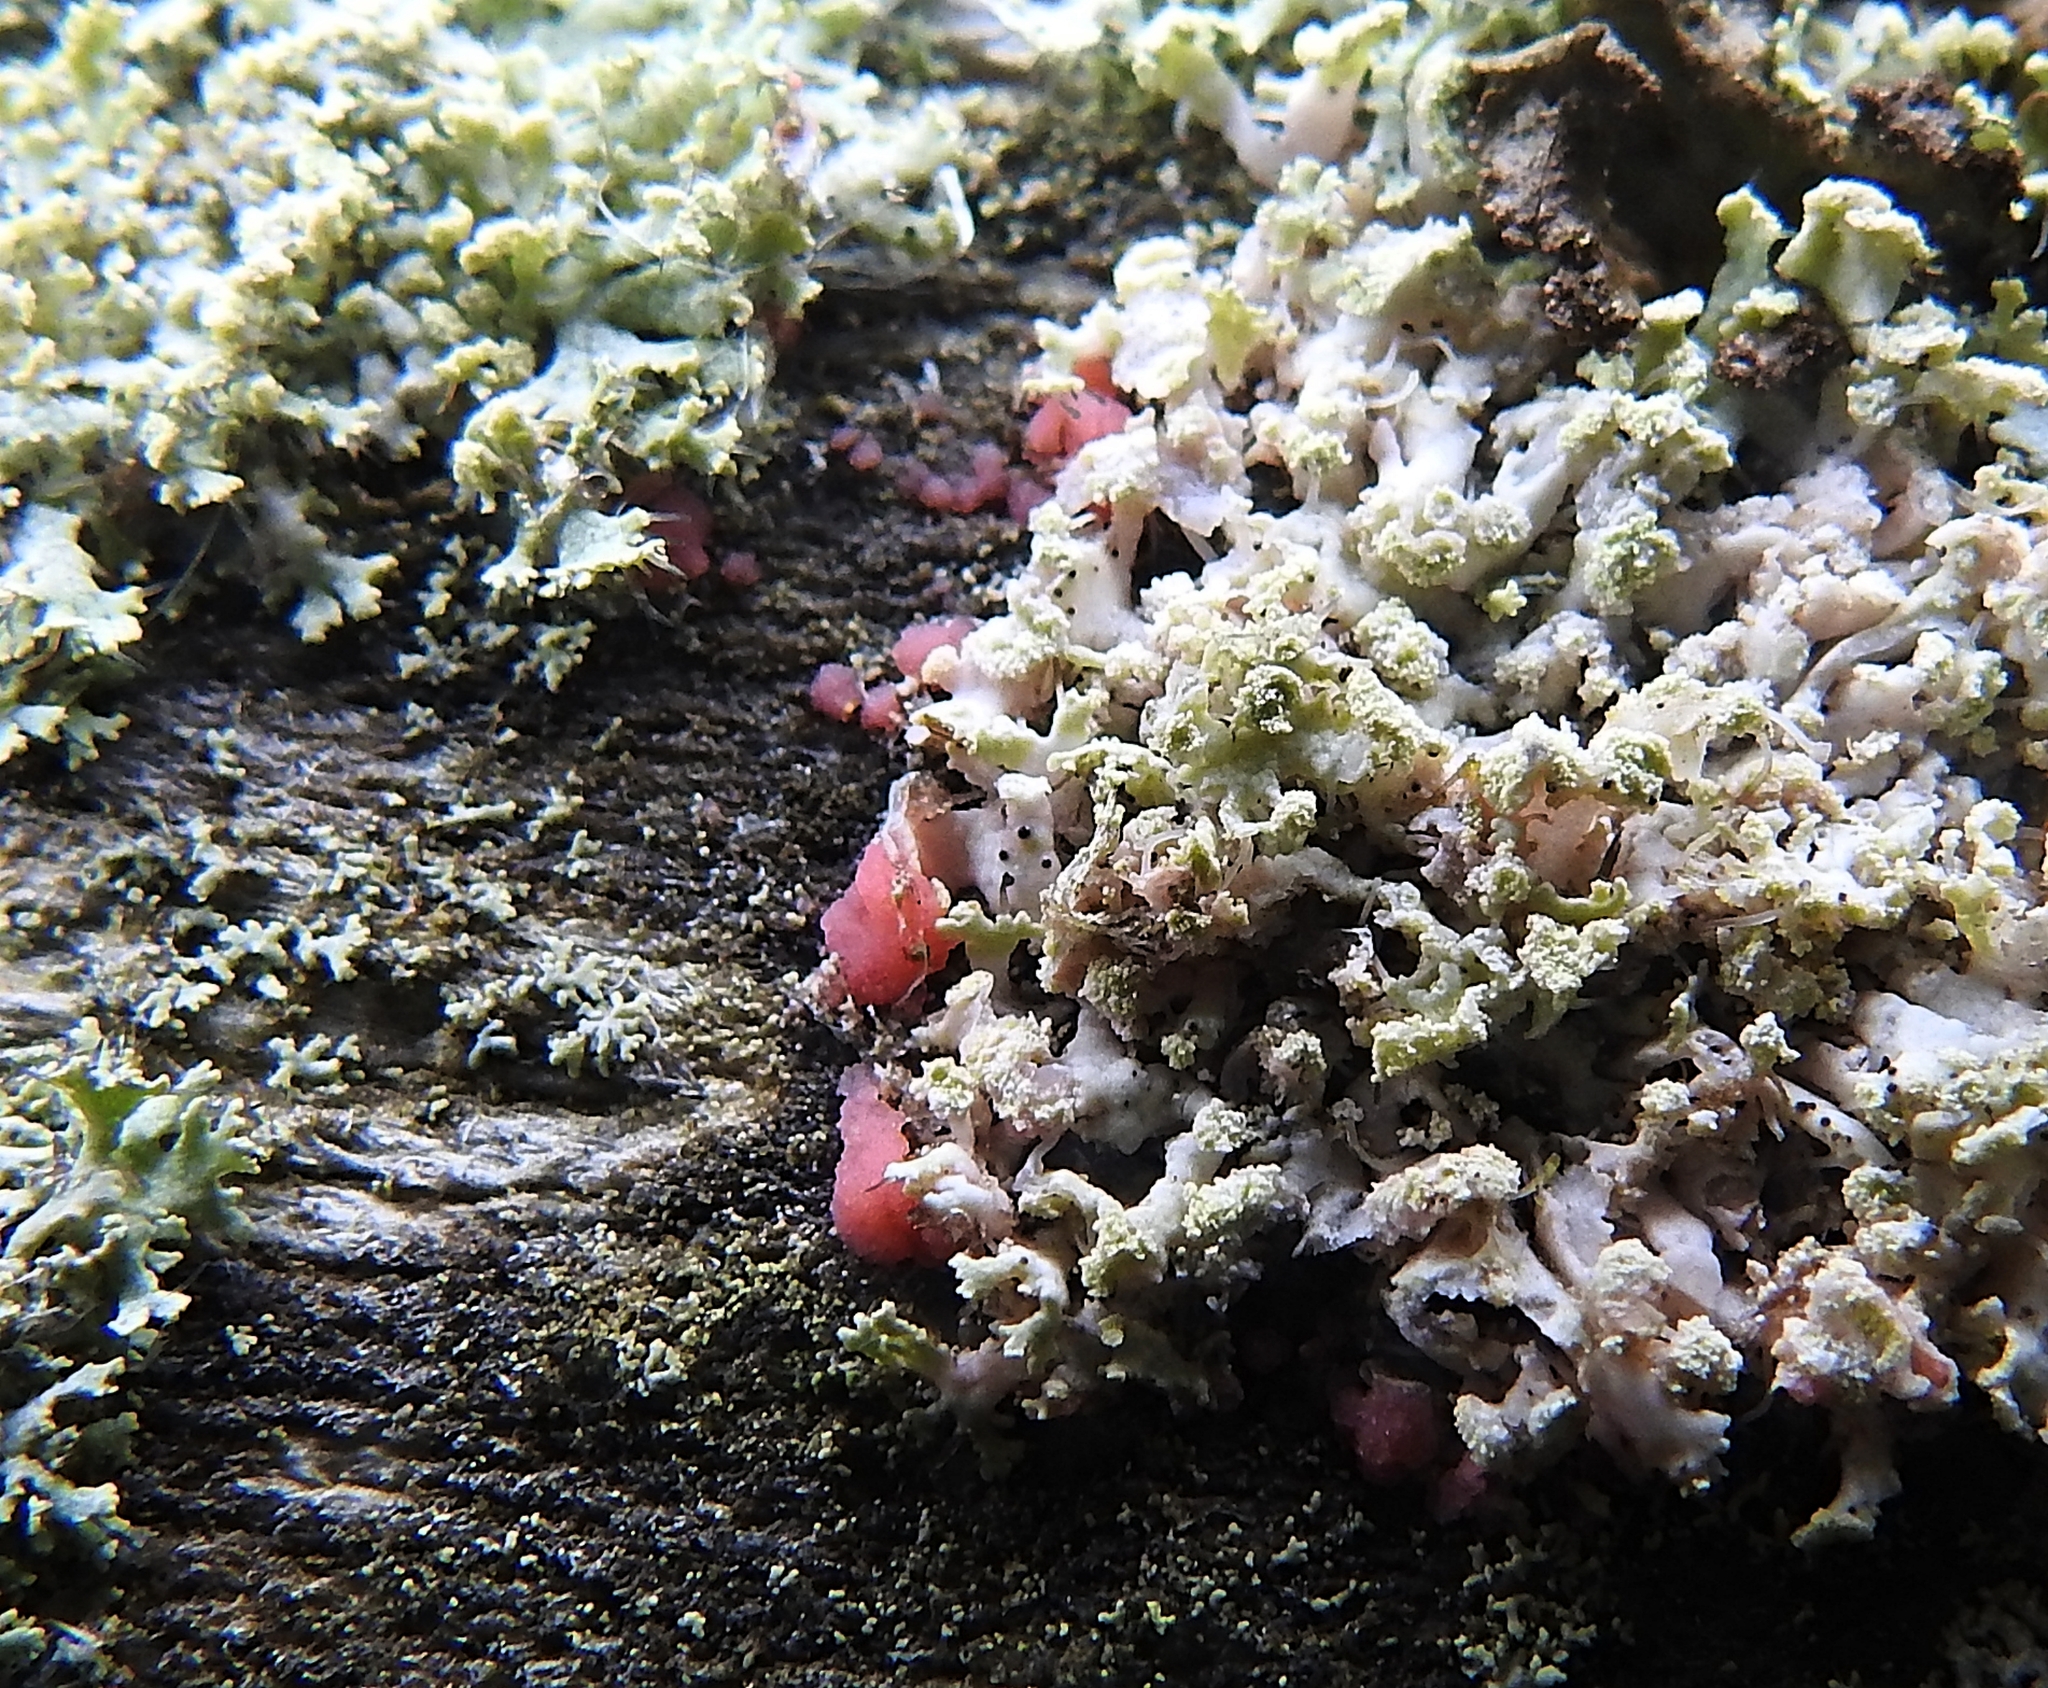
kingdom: Fungi
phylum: Ascomycota
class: Sordariomycetes
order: Hypocreales
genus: Illosporiopsis
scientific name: Illosporiopsis christiansenii
